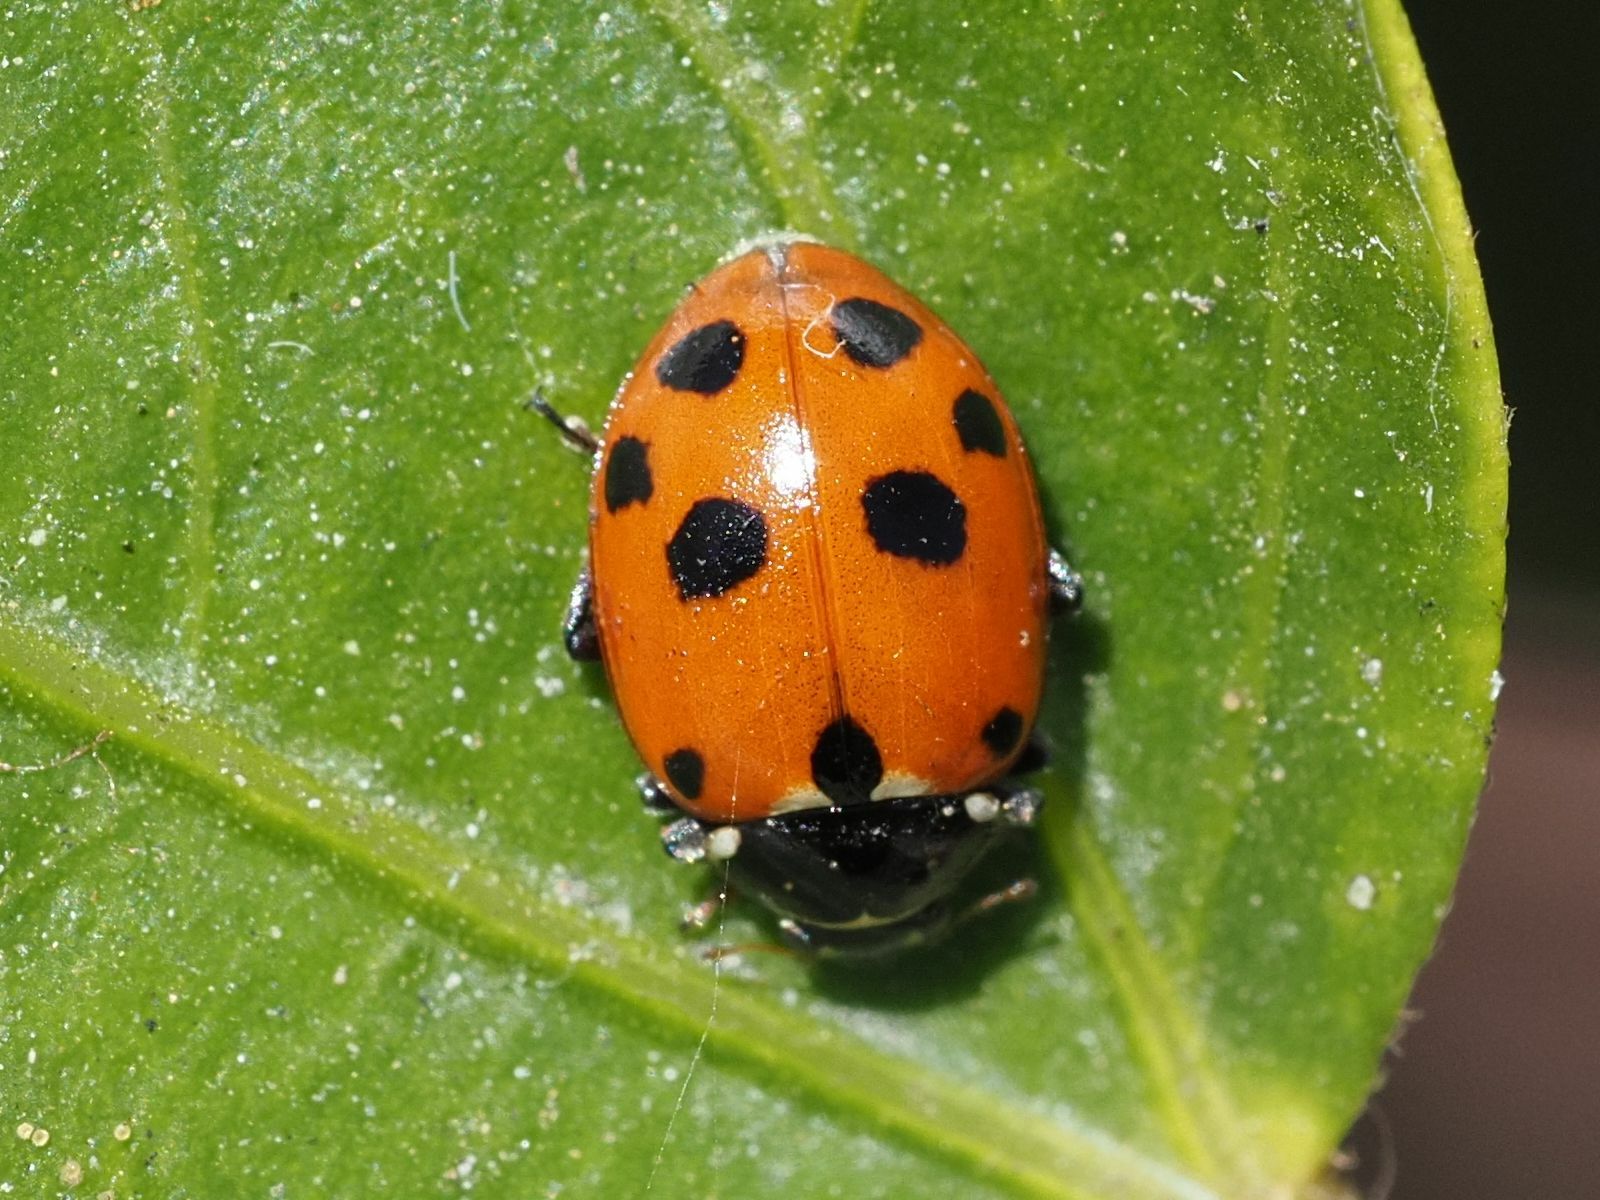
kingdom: Animalia
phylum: Arthropoda
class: Insecta
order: Coleoptera
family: Coccinellidae
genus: Hippodamia
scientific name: Hippodamia variegata
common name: Ladybird beetle
